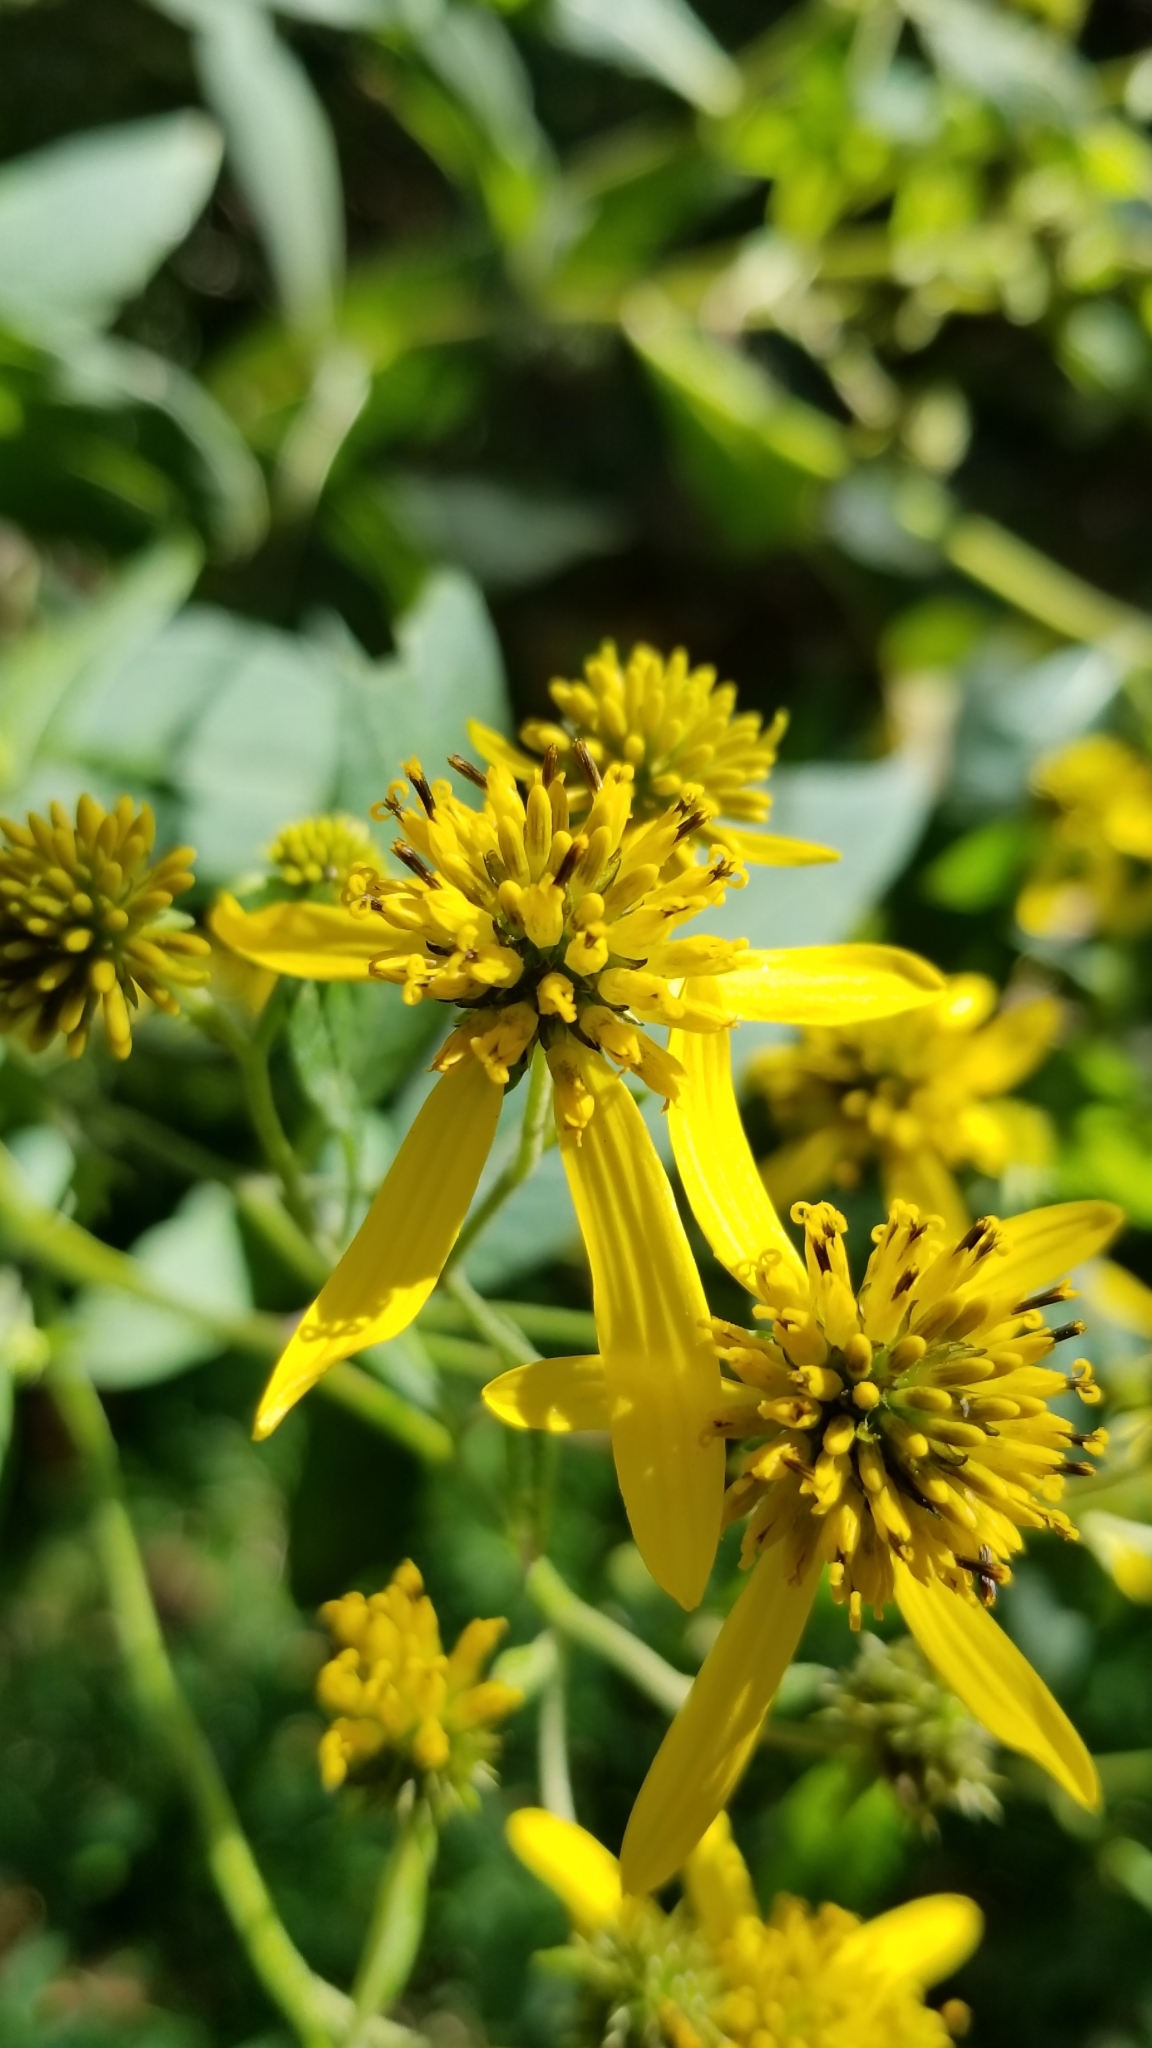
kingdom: Plantae
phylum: Tracheophyta
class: Magnoliopsida
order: Asterales
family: Asteraceae
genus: Verbesina
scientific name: Verbesina alternifolia
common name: Wingstem
